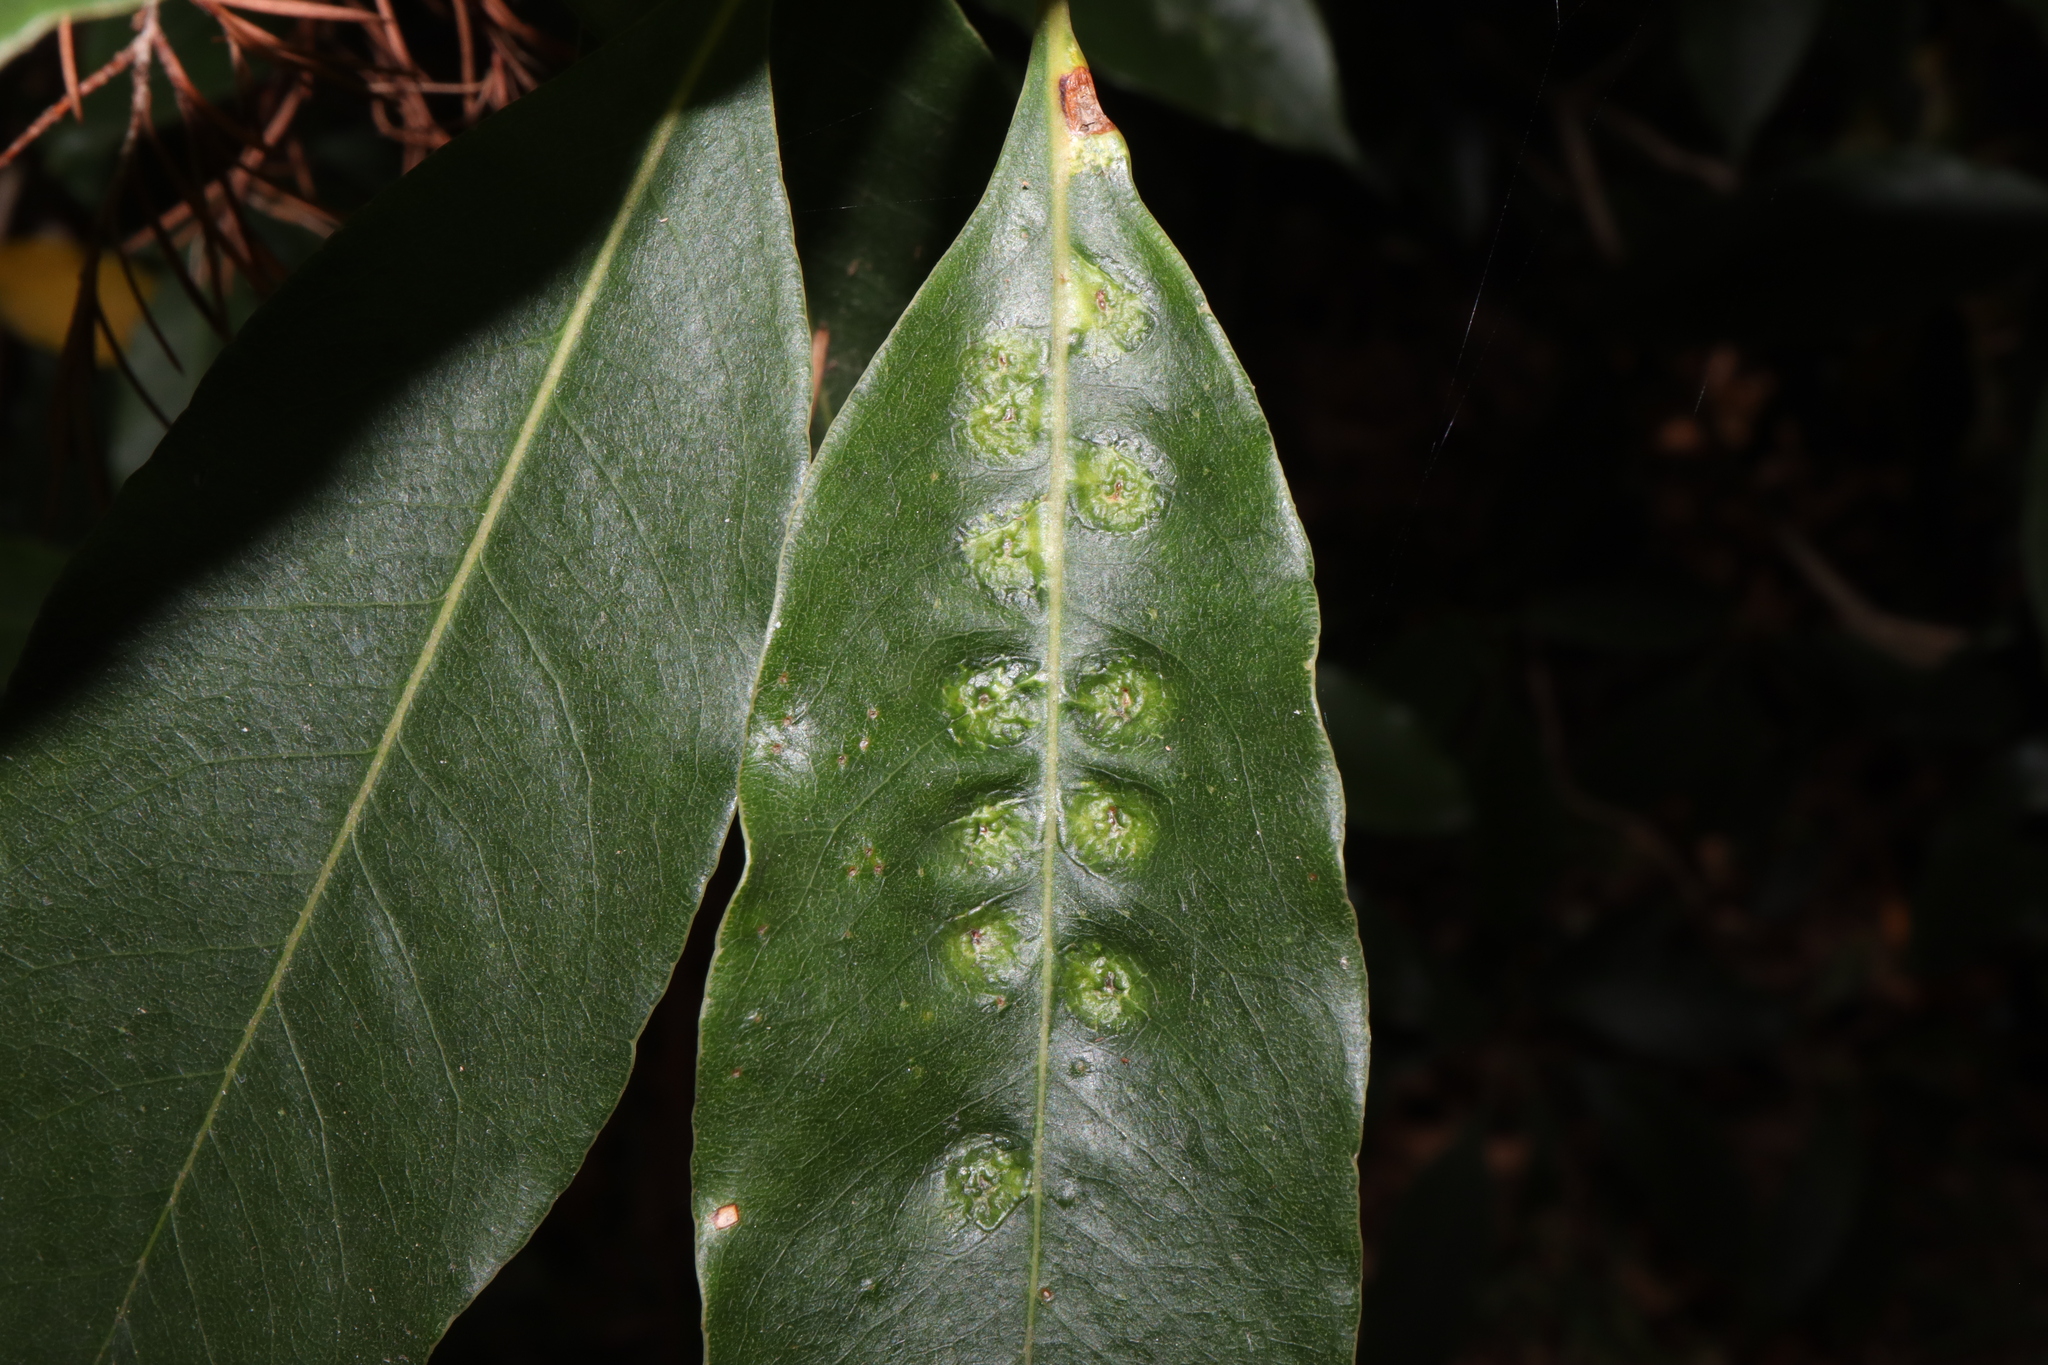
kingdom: Animalia
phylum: Arthropoda
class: Insecta
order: Diptera
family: Agromyzidae
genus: Phytoliriomyza
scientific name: Phytoliriomyza pittosporophylli
